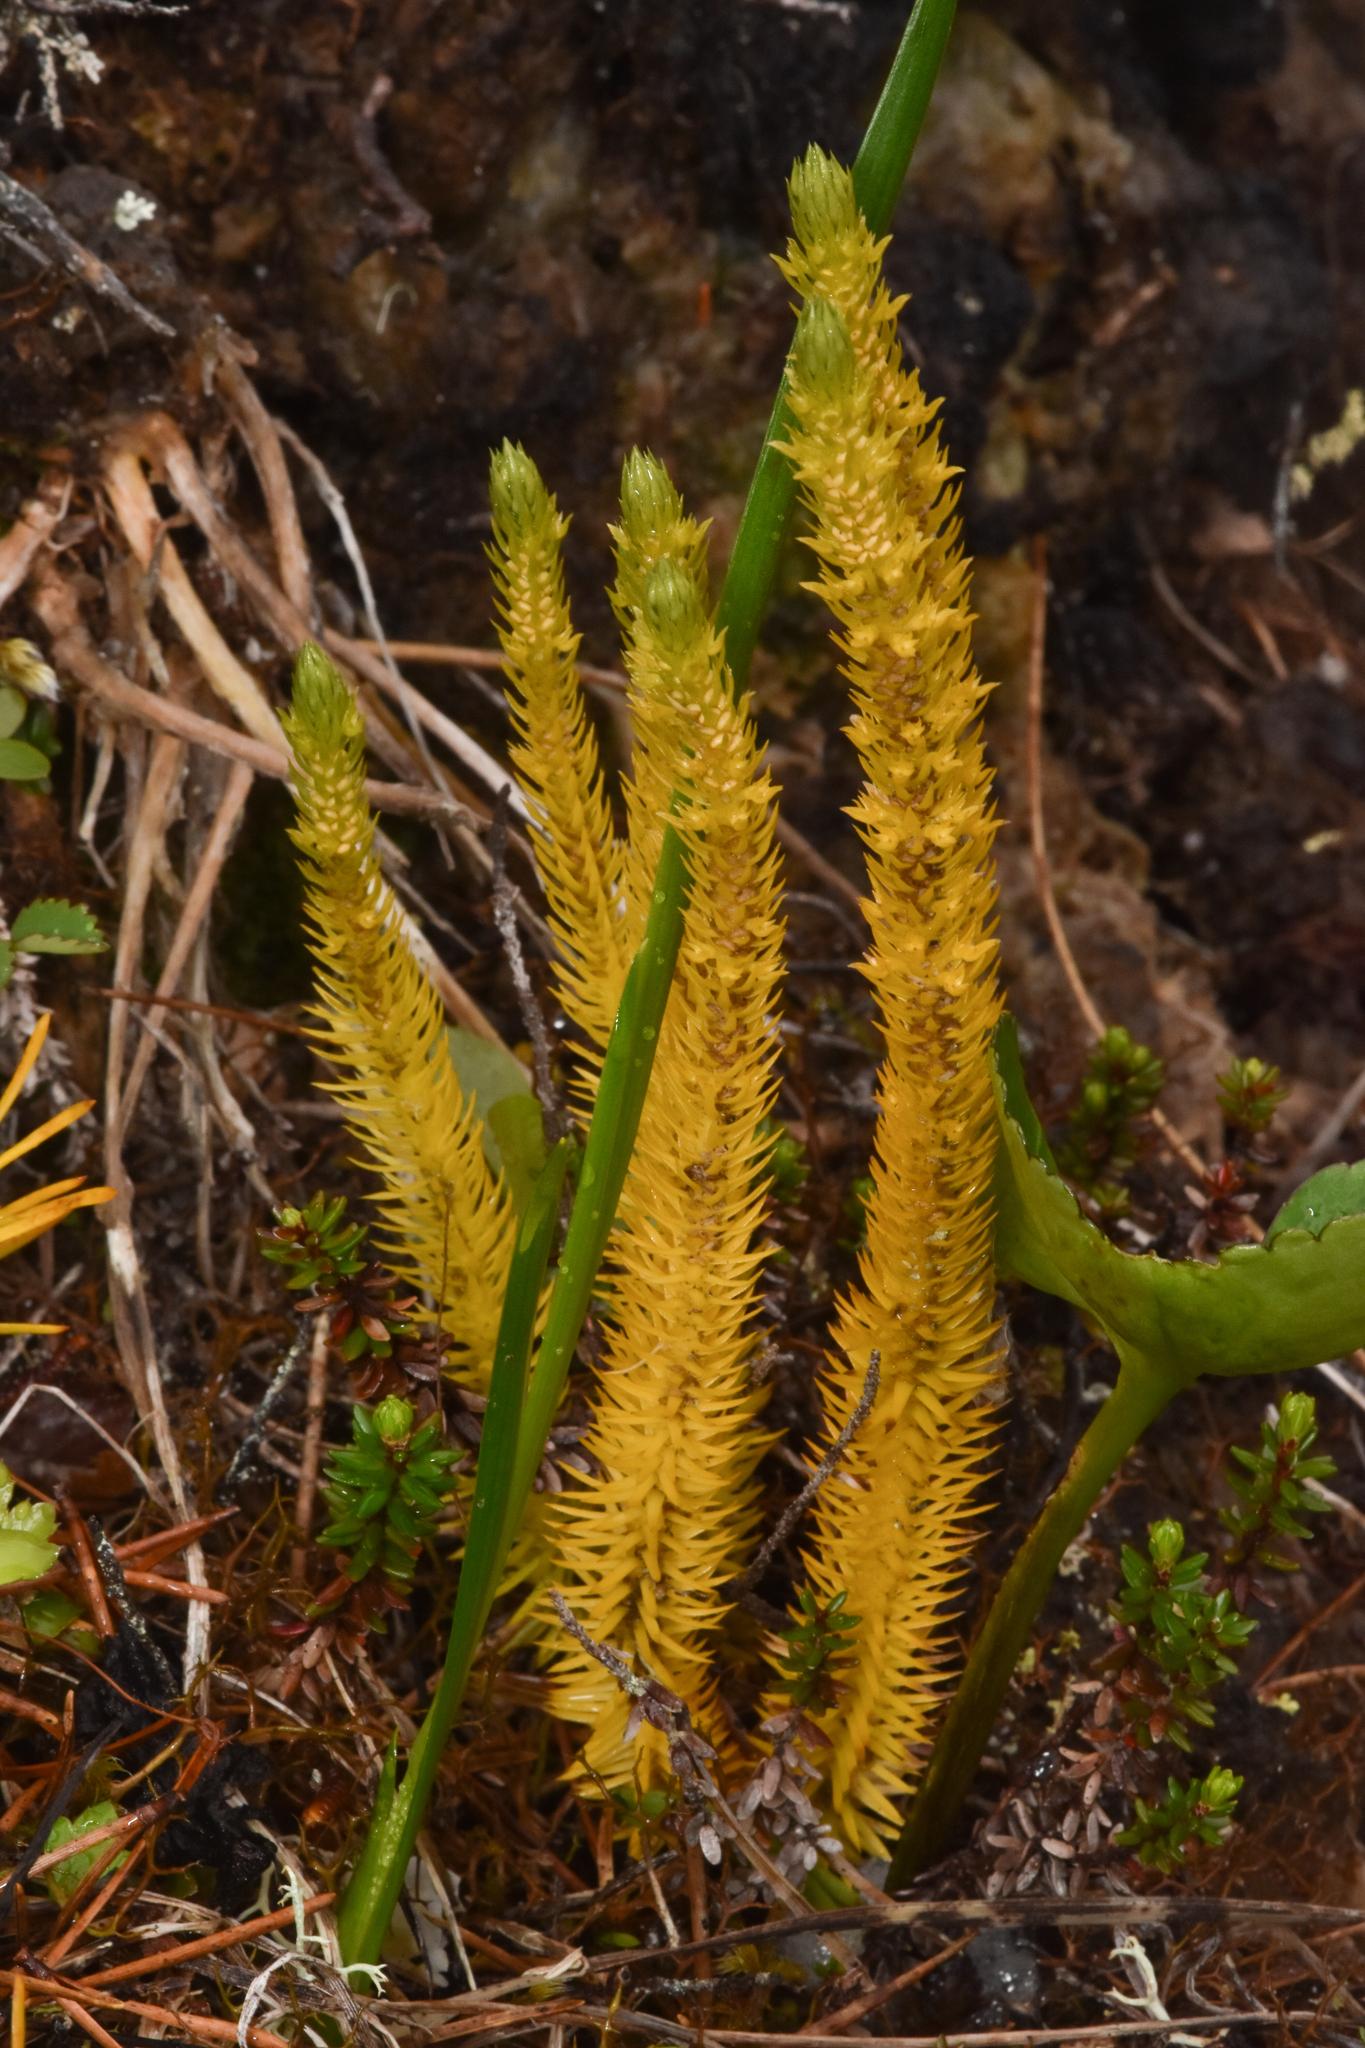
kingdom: Plantae
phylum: Tracheophyta
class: Lycopodiopsida
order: Lycopodiales
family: Lycopodiaceae
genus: Huperzia
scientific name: Huperzia continentalis
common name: Continental firmoss
